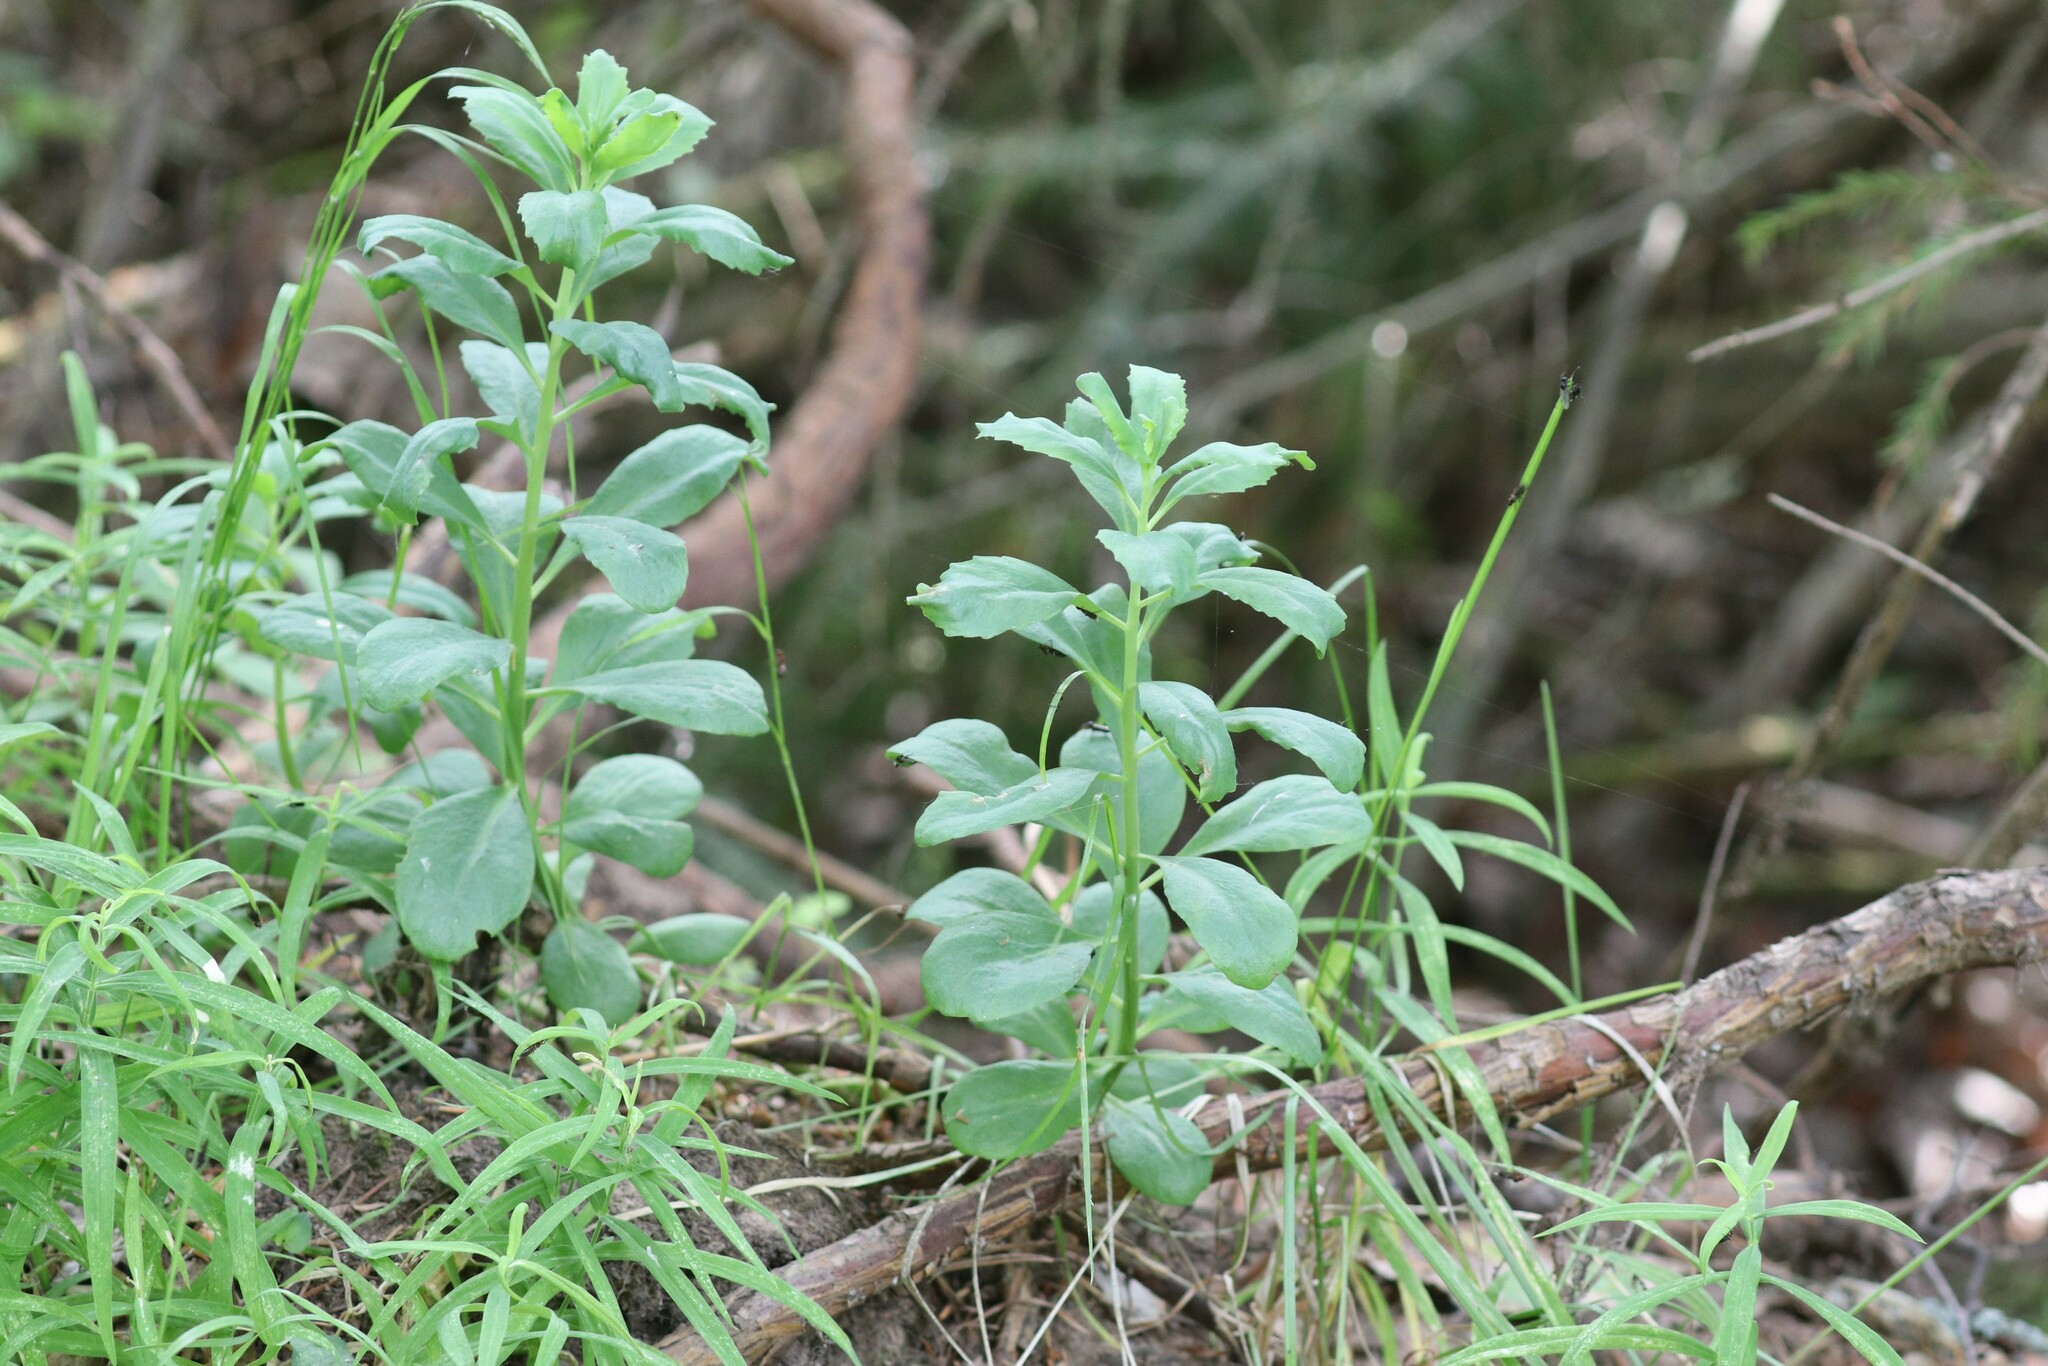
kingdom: Plantae
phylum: Tracheophyta
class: Magnoliopsida
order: Saxifragales
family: Crassulaceae
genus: Hylotelephium
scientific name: Hylotelephium telephium
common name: Live-forever
